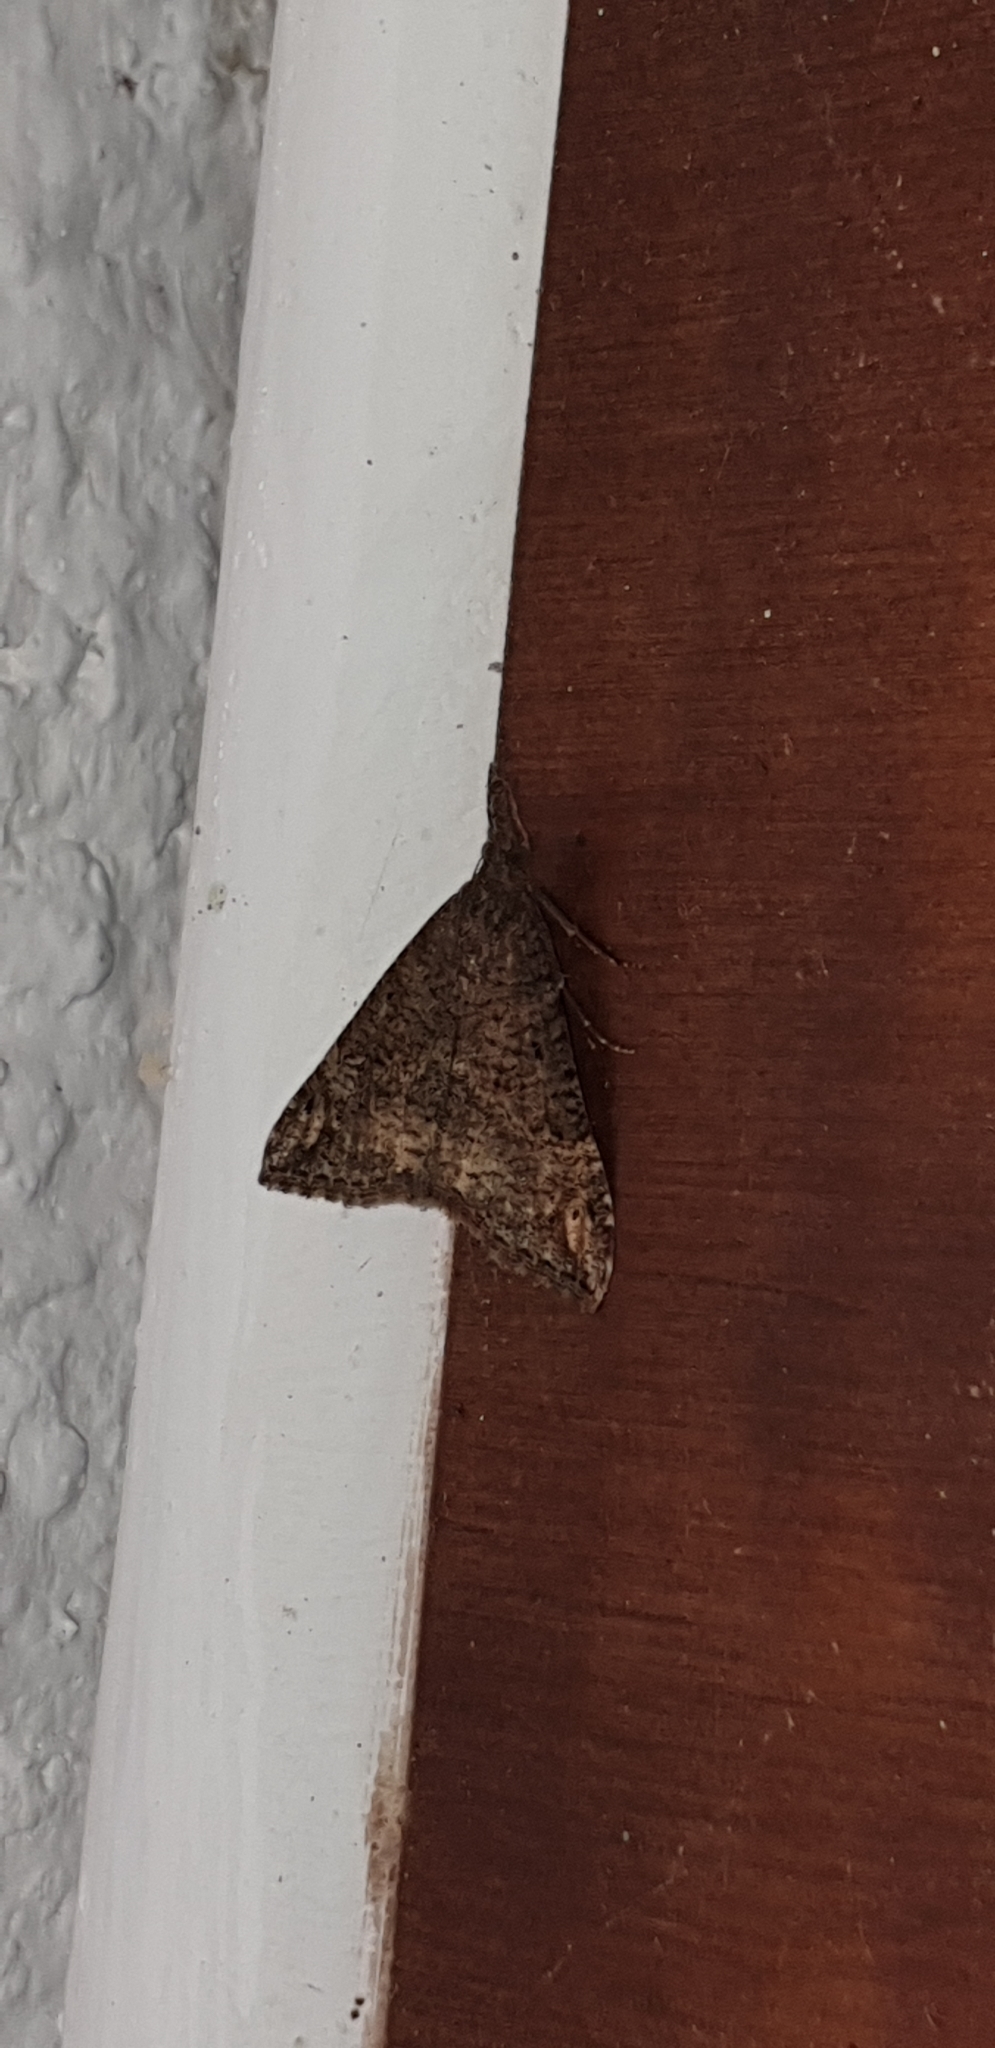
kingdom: Animalia
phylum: Arthropoda
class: Insecta
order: Lepidoptera
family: Erebidae
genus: Hypena
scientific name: Hypena obsitalis
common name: Bloxworth snout
